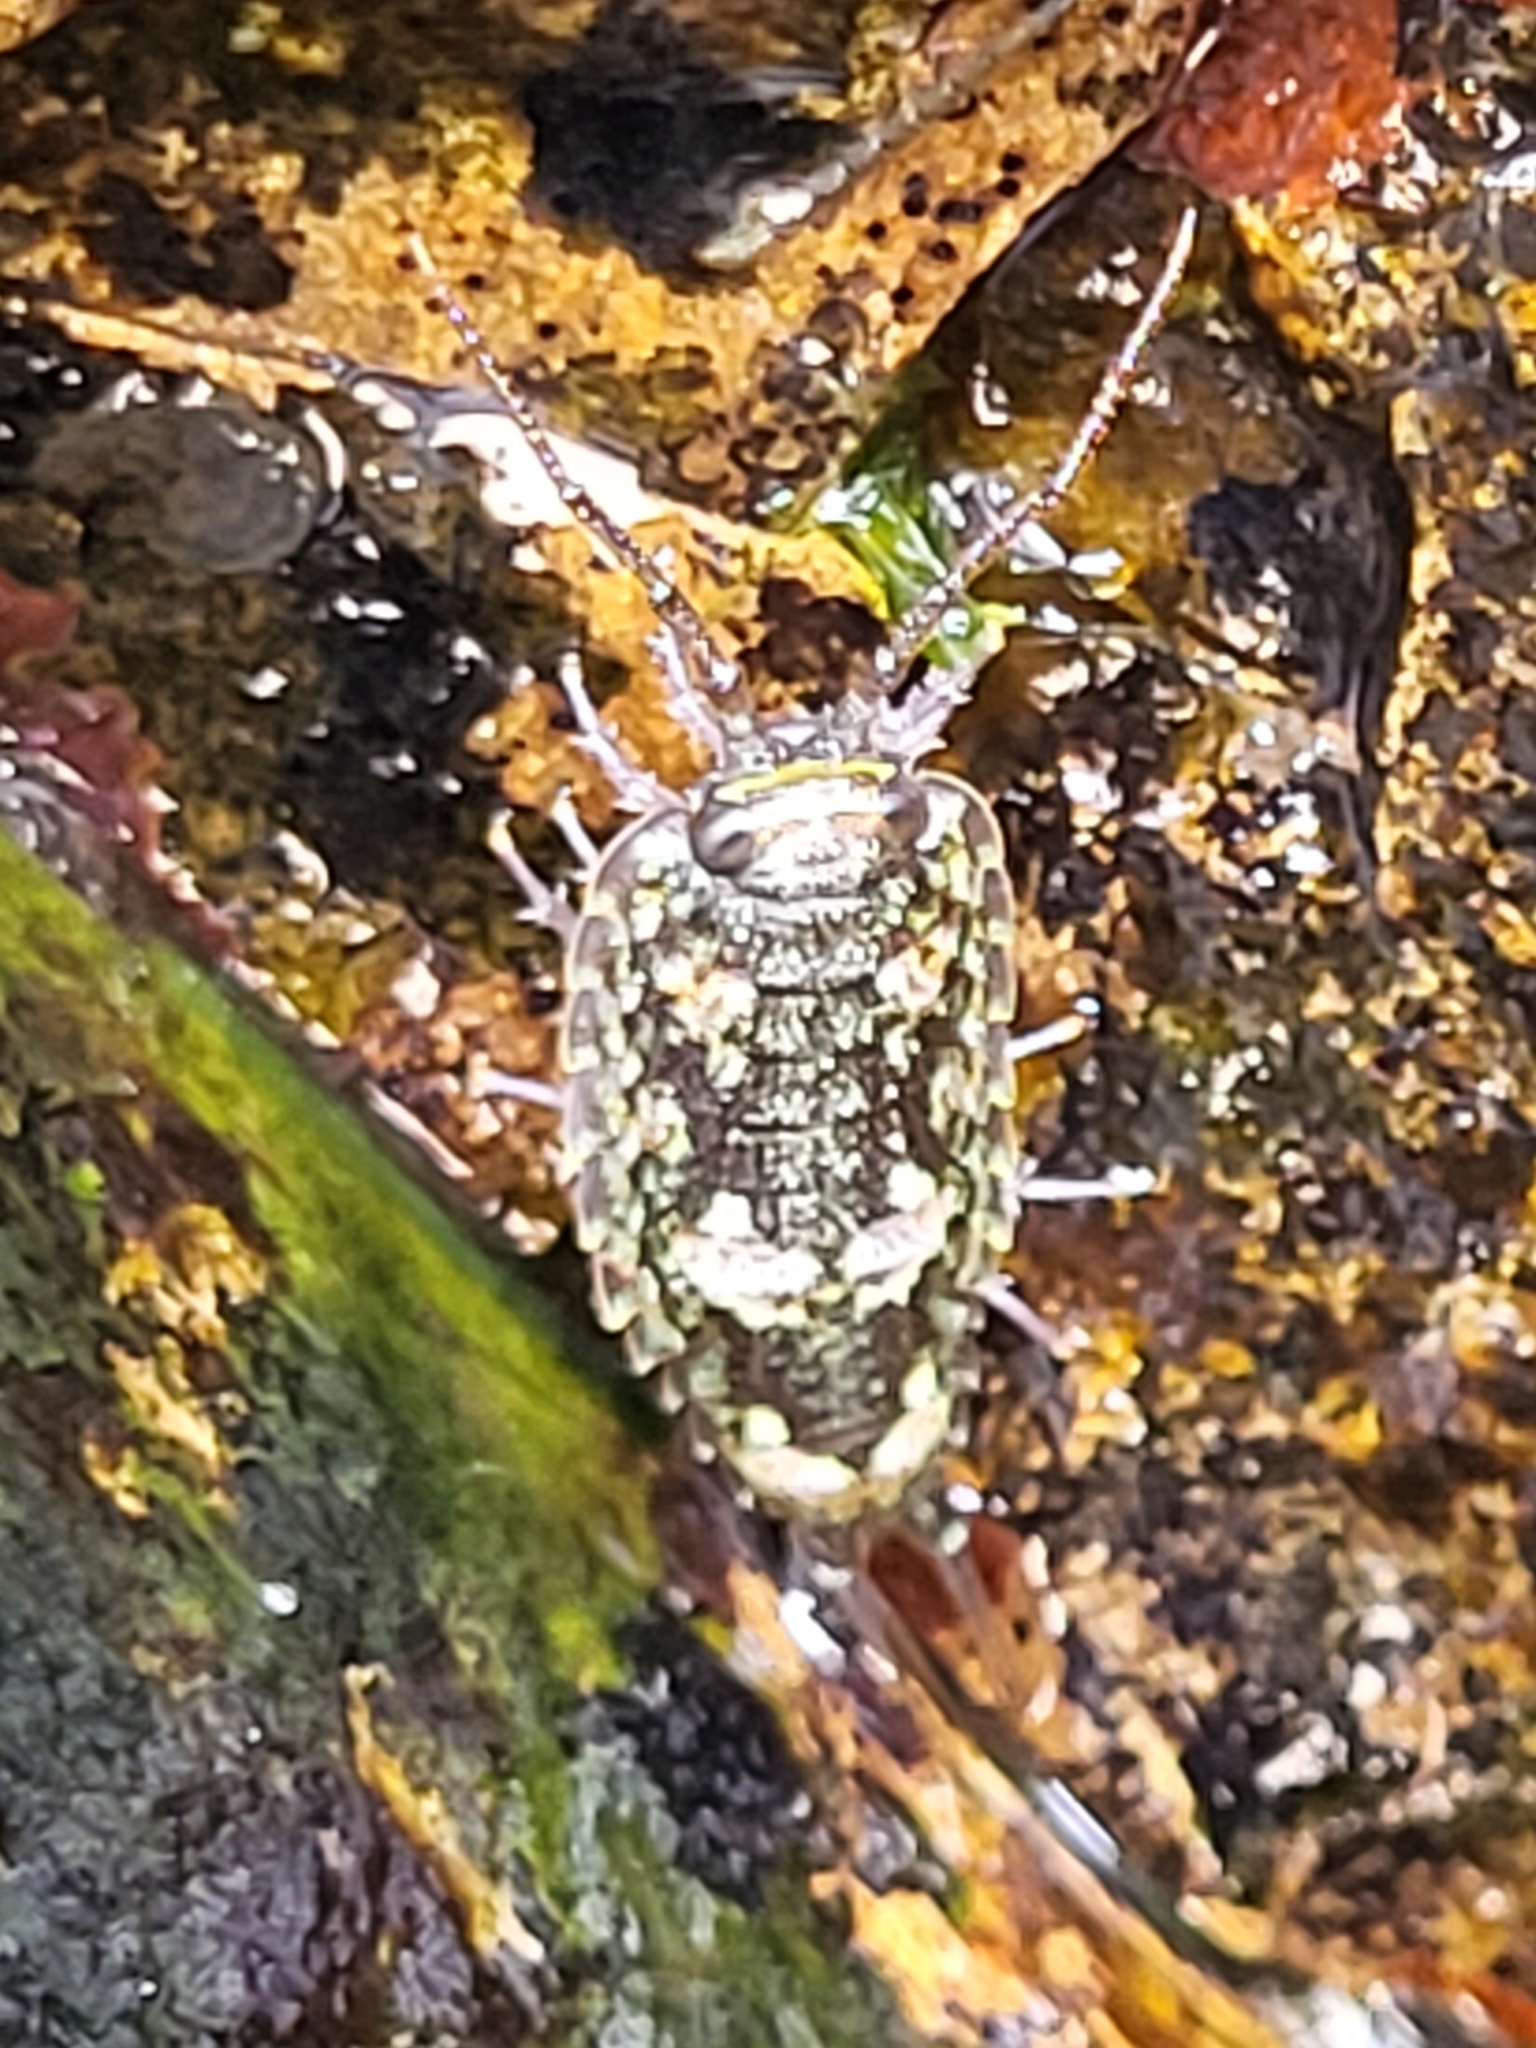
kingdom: Animalia
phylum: Arthropoda
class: Malacostraca
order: Isopoda
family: Ligiidae
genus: Ligia
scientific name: Ligia oceanica
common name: Sea slater
